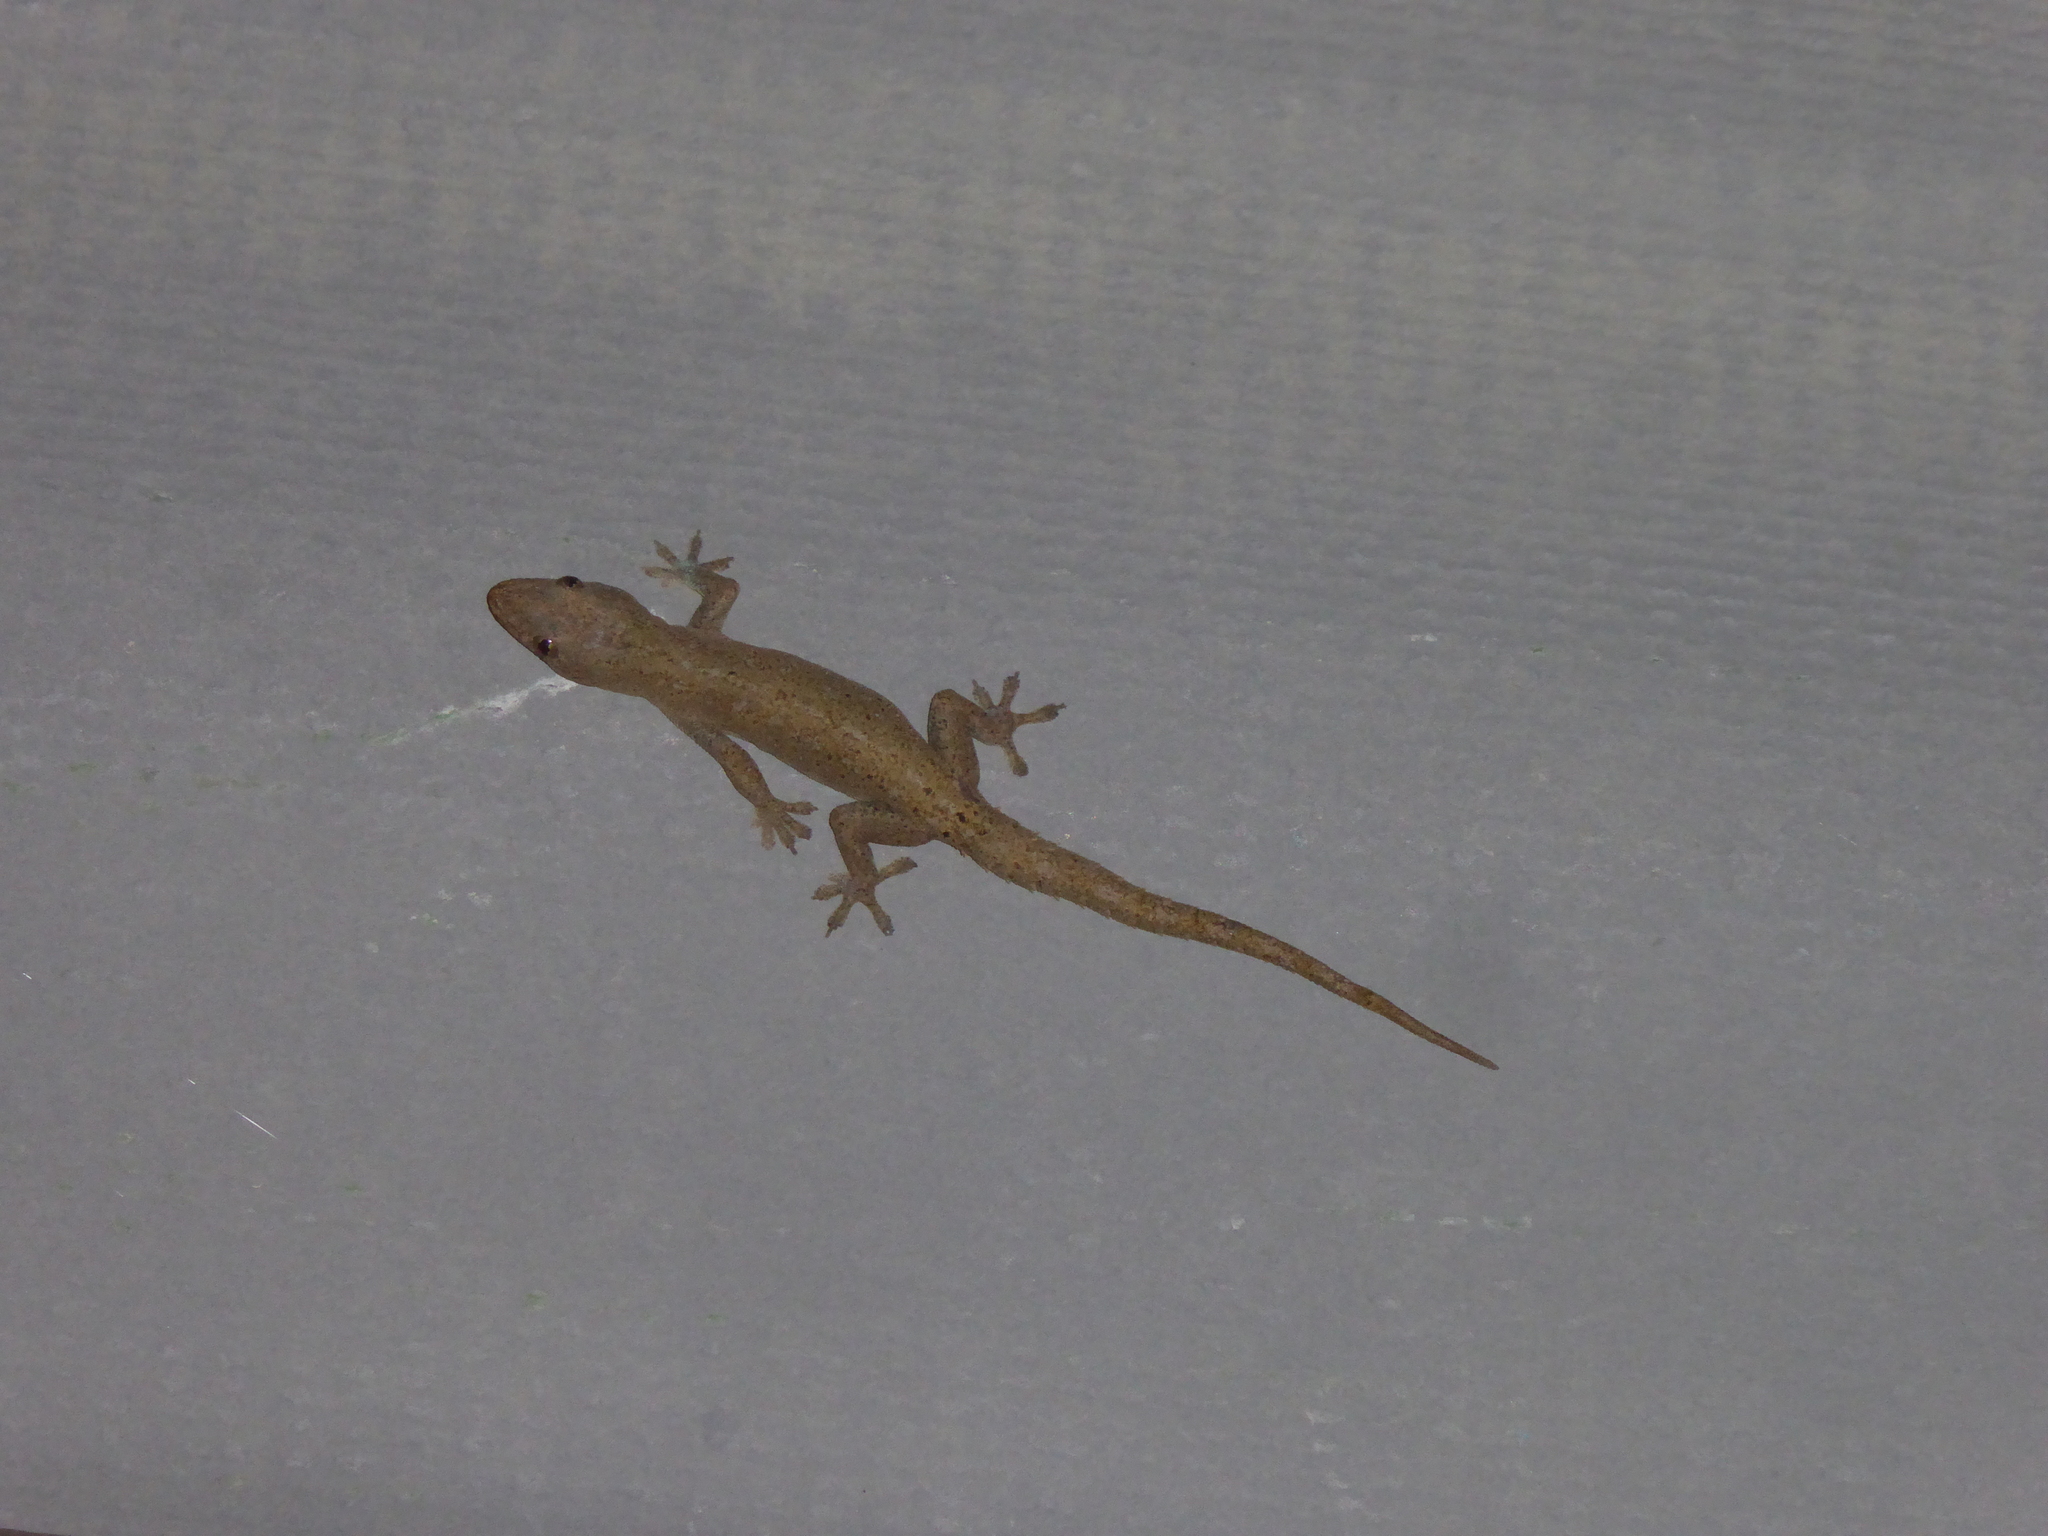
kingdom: Animalia
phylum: Chordata
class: Squamata
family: Gekkonidae
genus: Hemidactylus
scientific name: Hemidactylus frenatus
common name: Common house gecko
